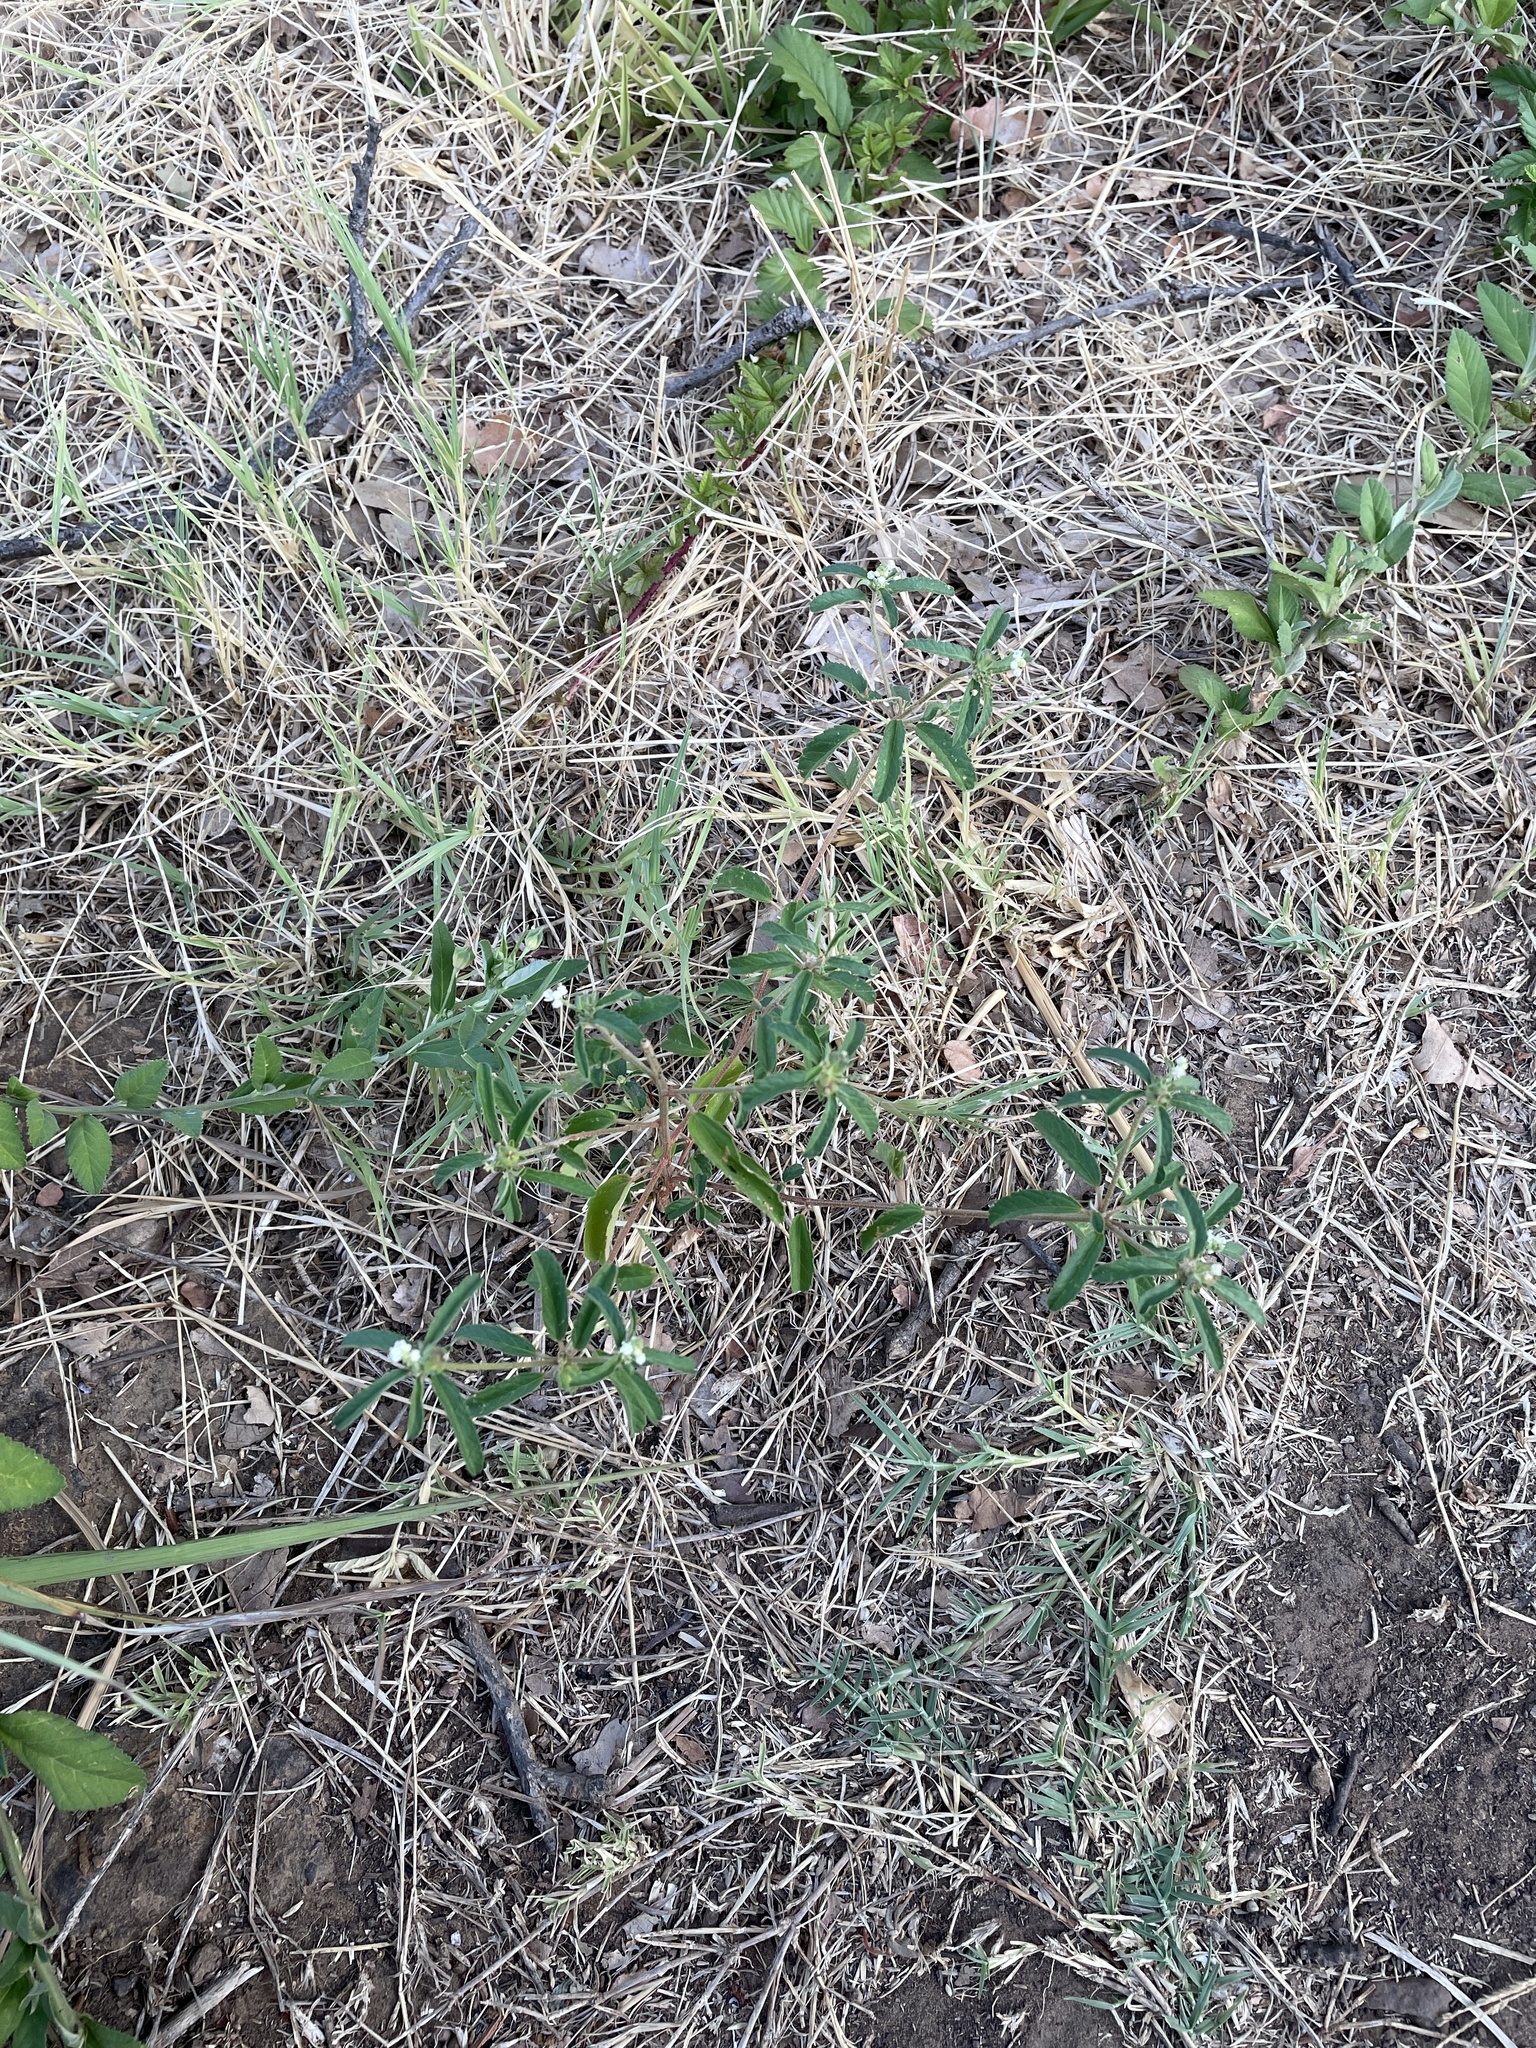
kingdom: Plantae
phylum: Tracheophyta
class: Magnoliopsida
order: Malpighiales
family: Euphorbiaceae
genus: Croton
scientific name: Croton glandulosus
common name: Tropic croton
